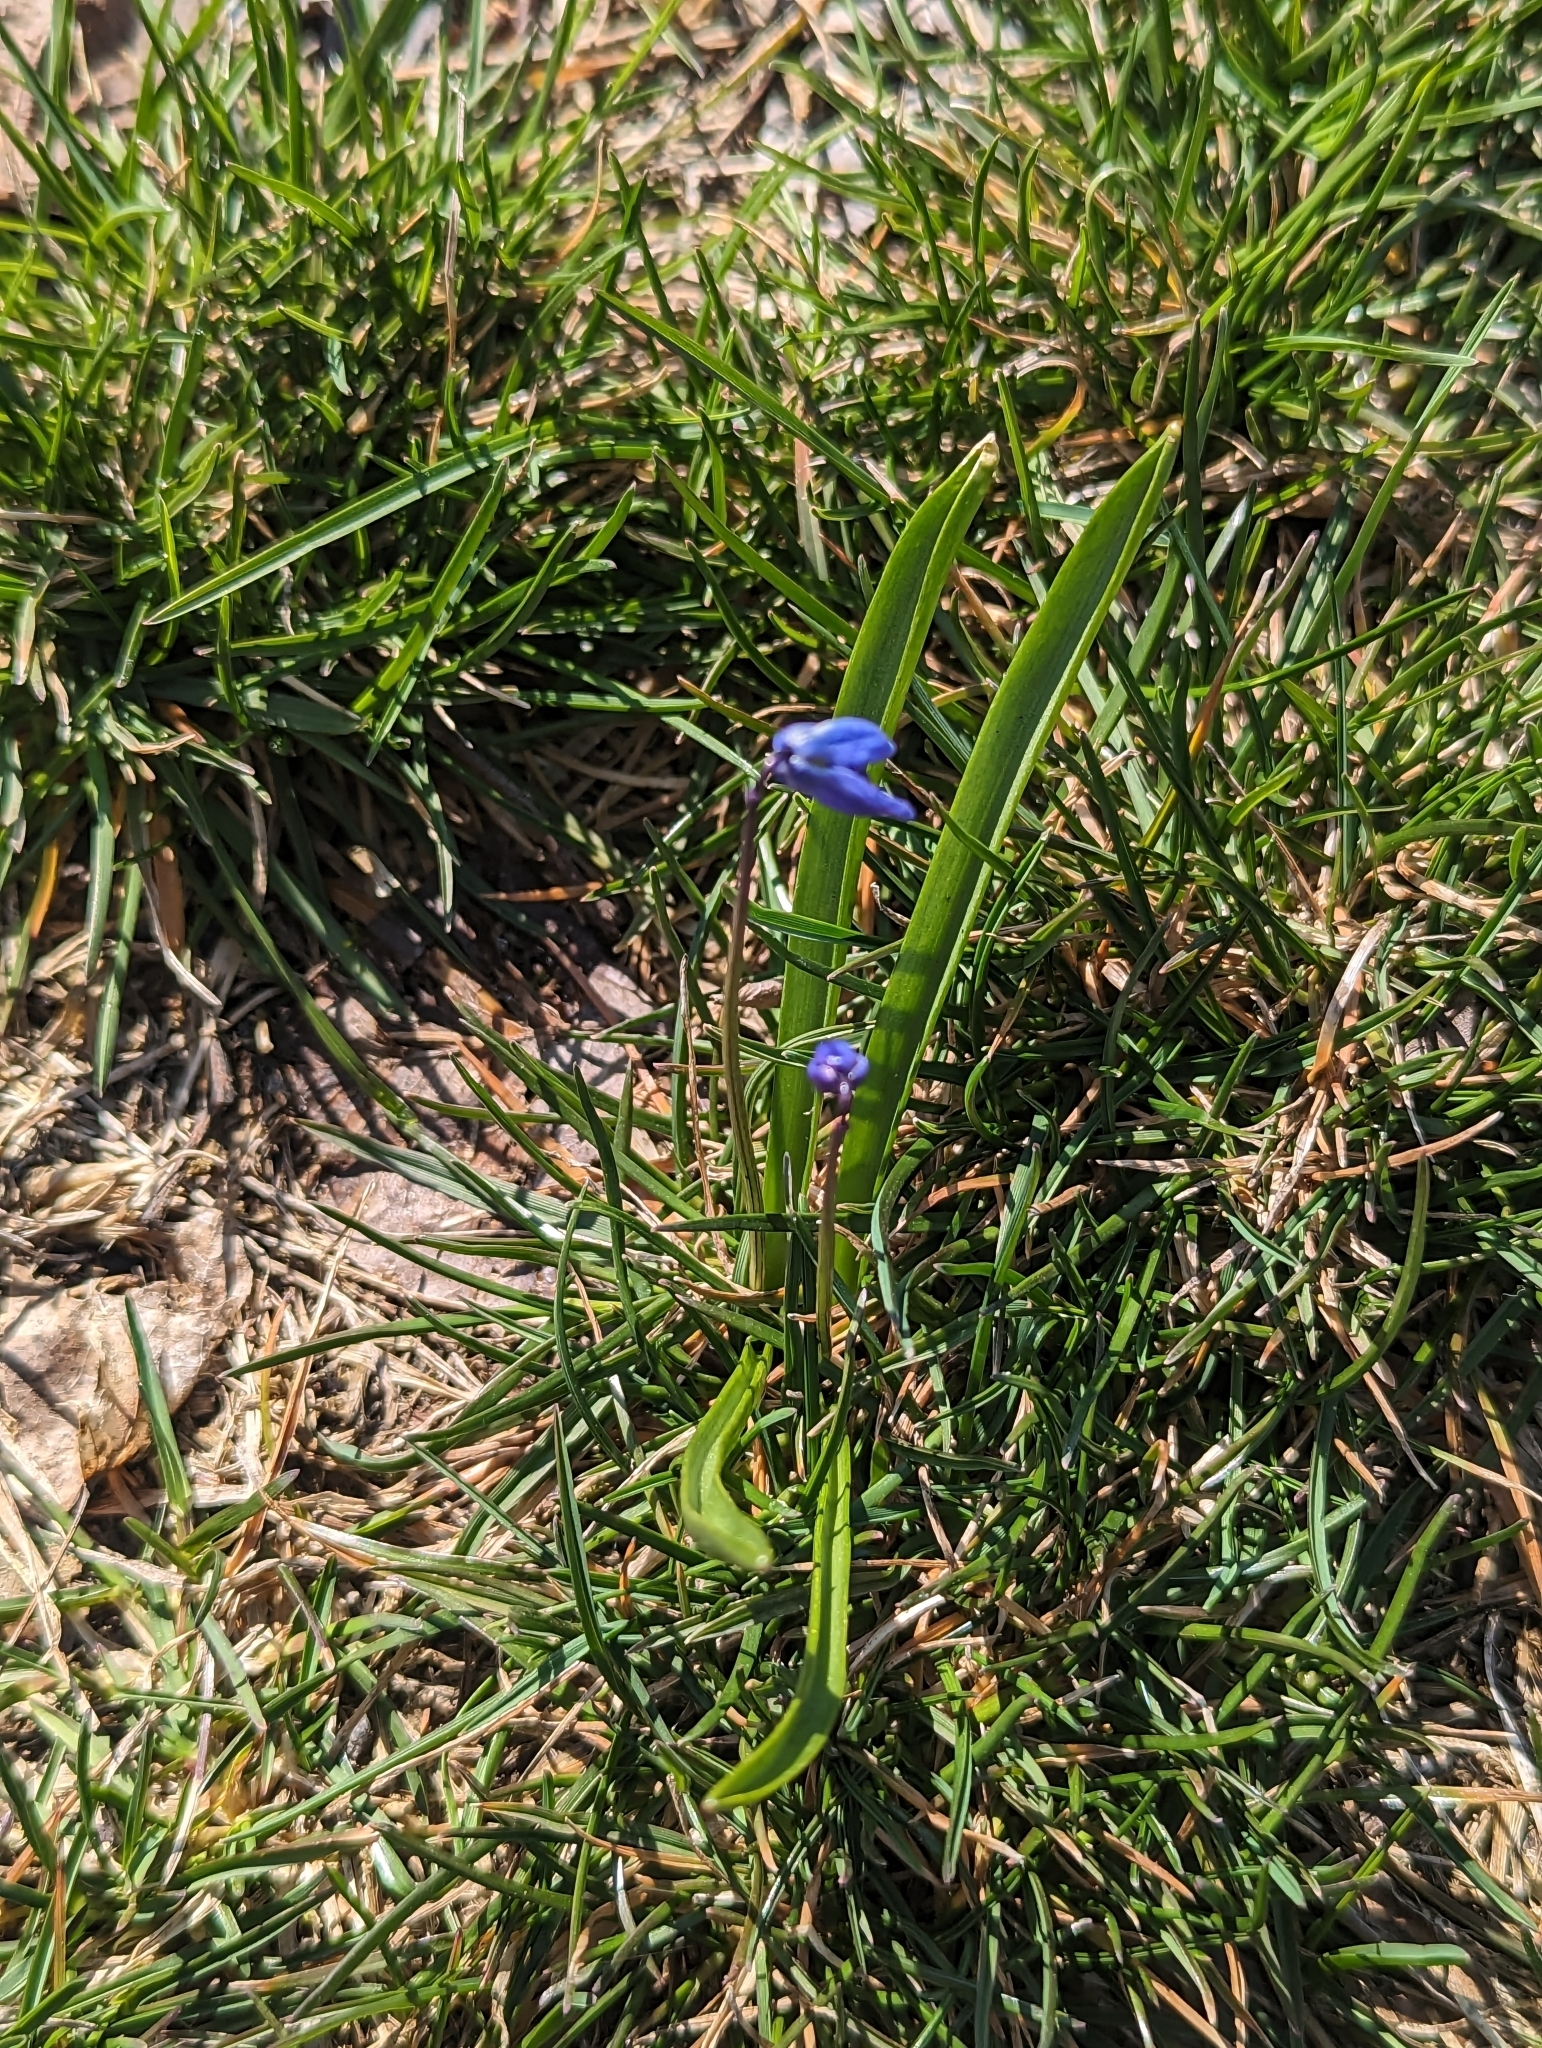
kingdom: Plantae
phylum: Tracheophyta
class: Liliopsida
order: Asparagales
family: Asparagaceae
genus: Scilla
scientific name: Scilla siberica
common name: Siberian squill
